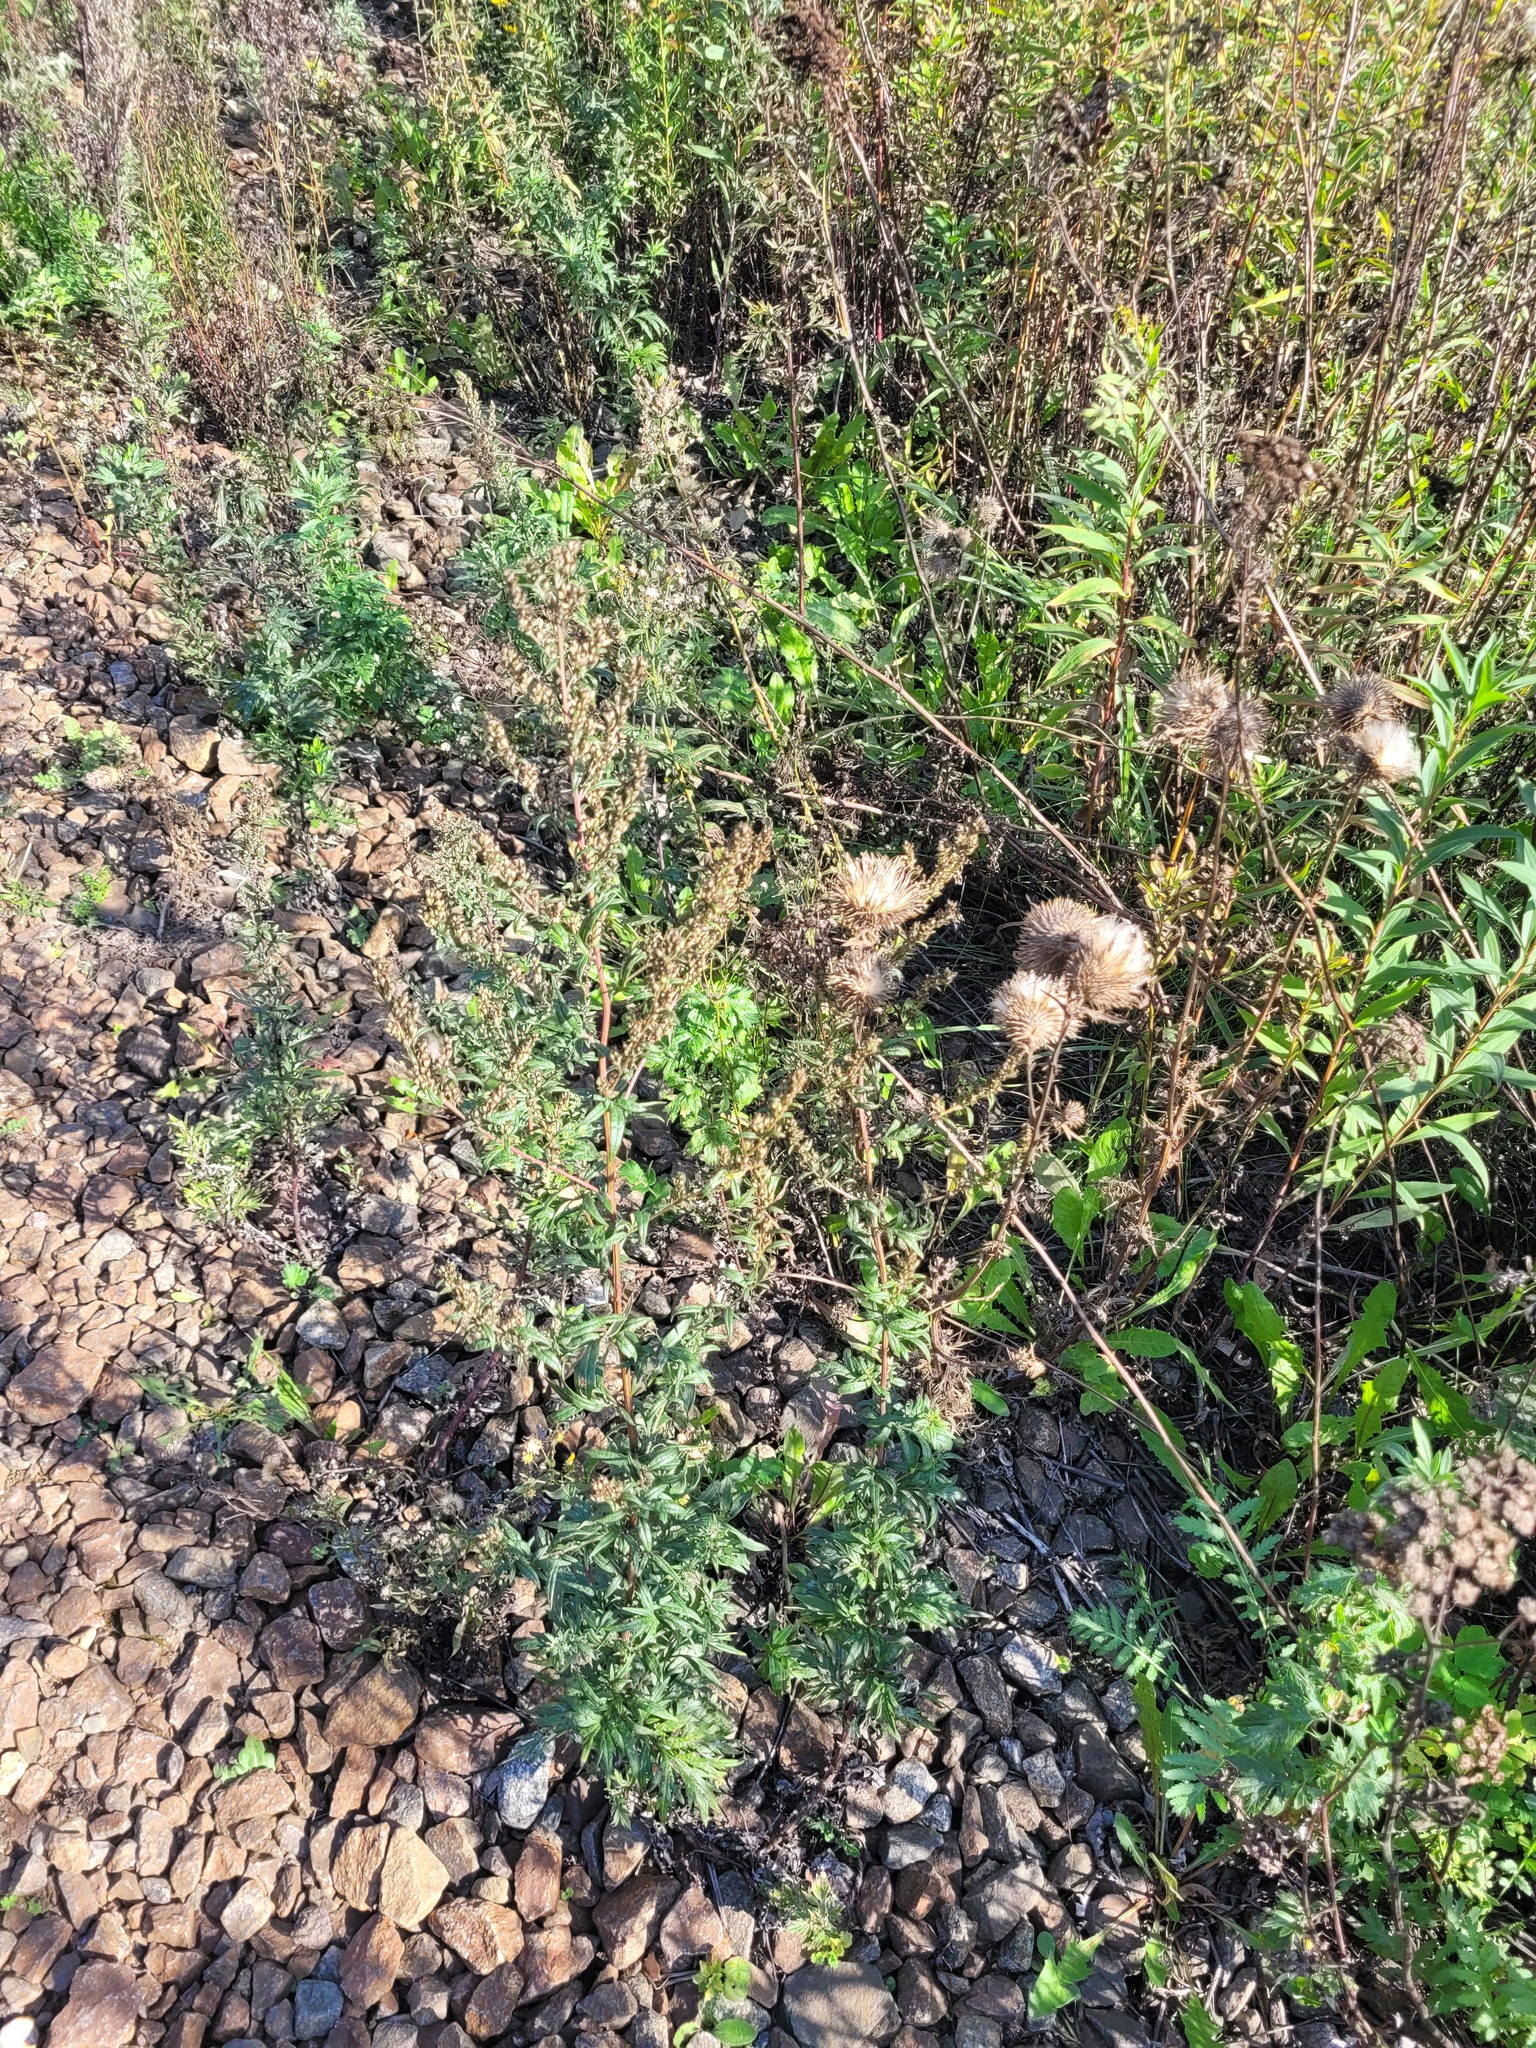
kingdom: Plantae
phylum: Tracheophyta
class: Magnoliopsida
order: Asterales
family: Asteraceae
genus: Artemisia
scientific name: Artemisia vulgaris
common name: Mugwort
